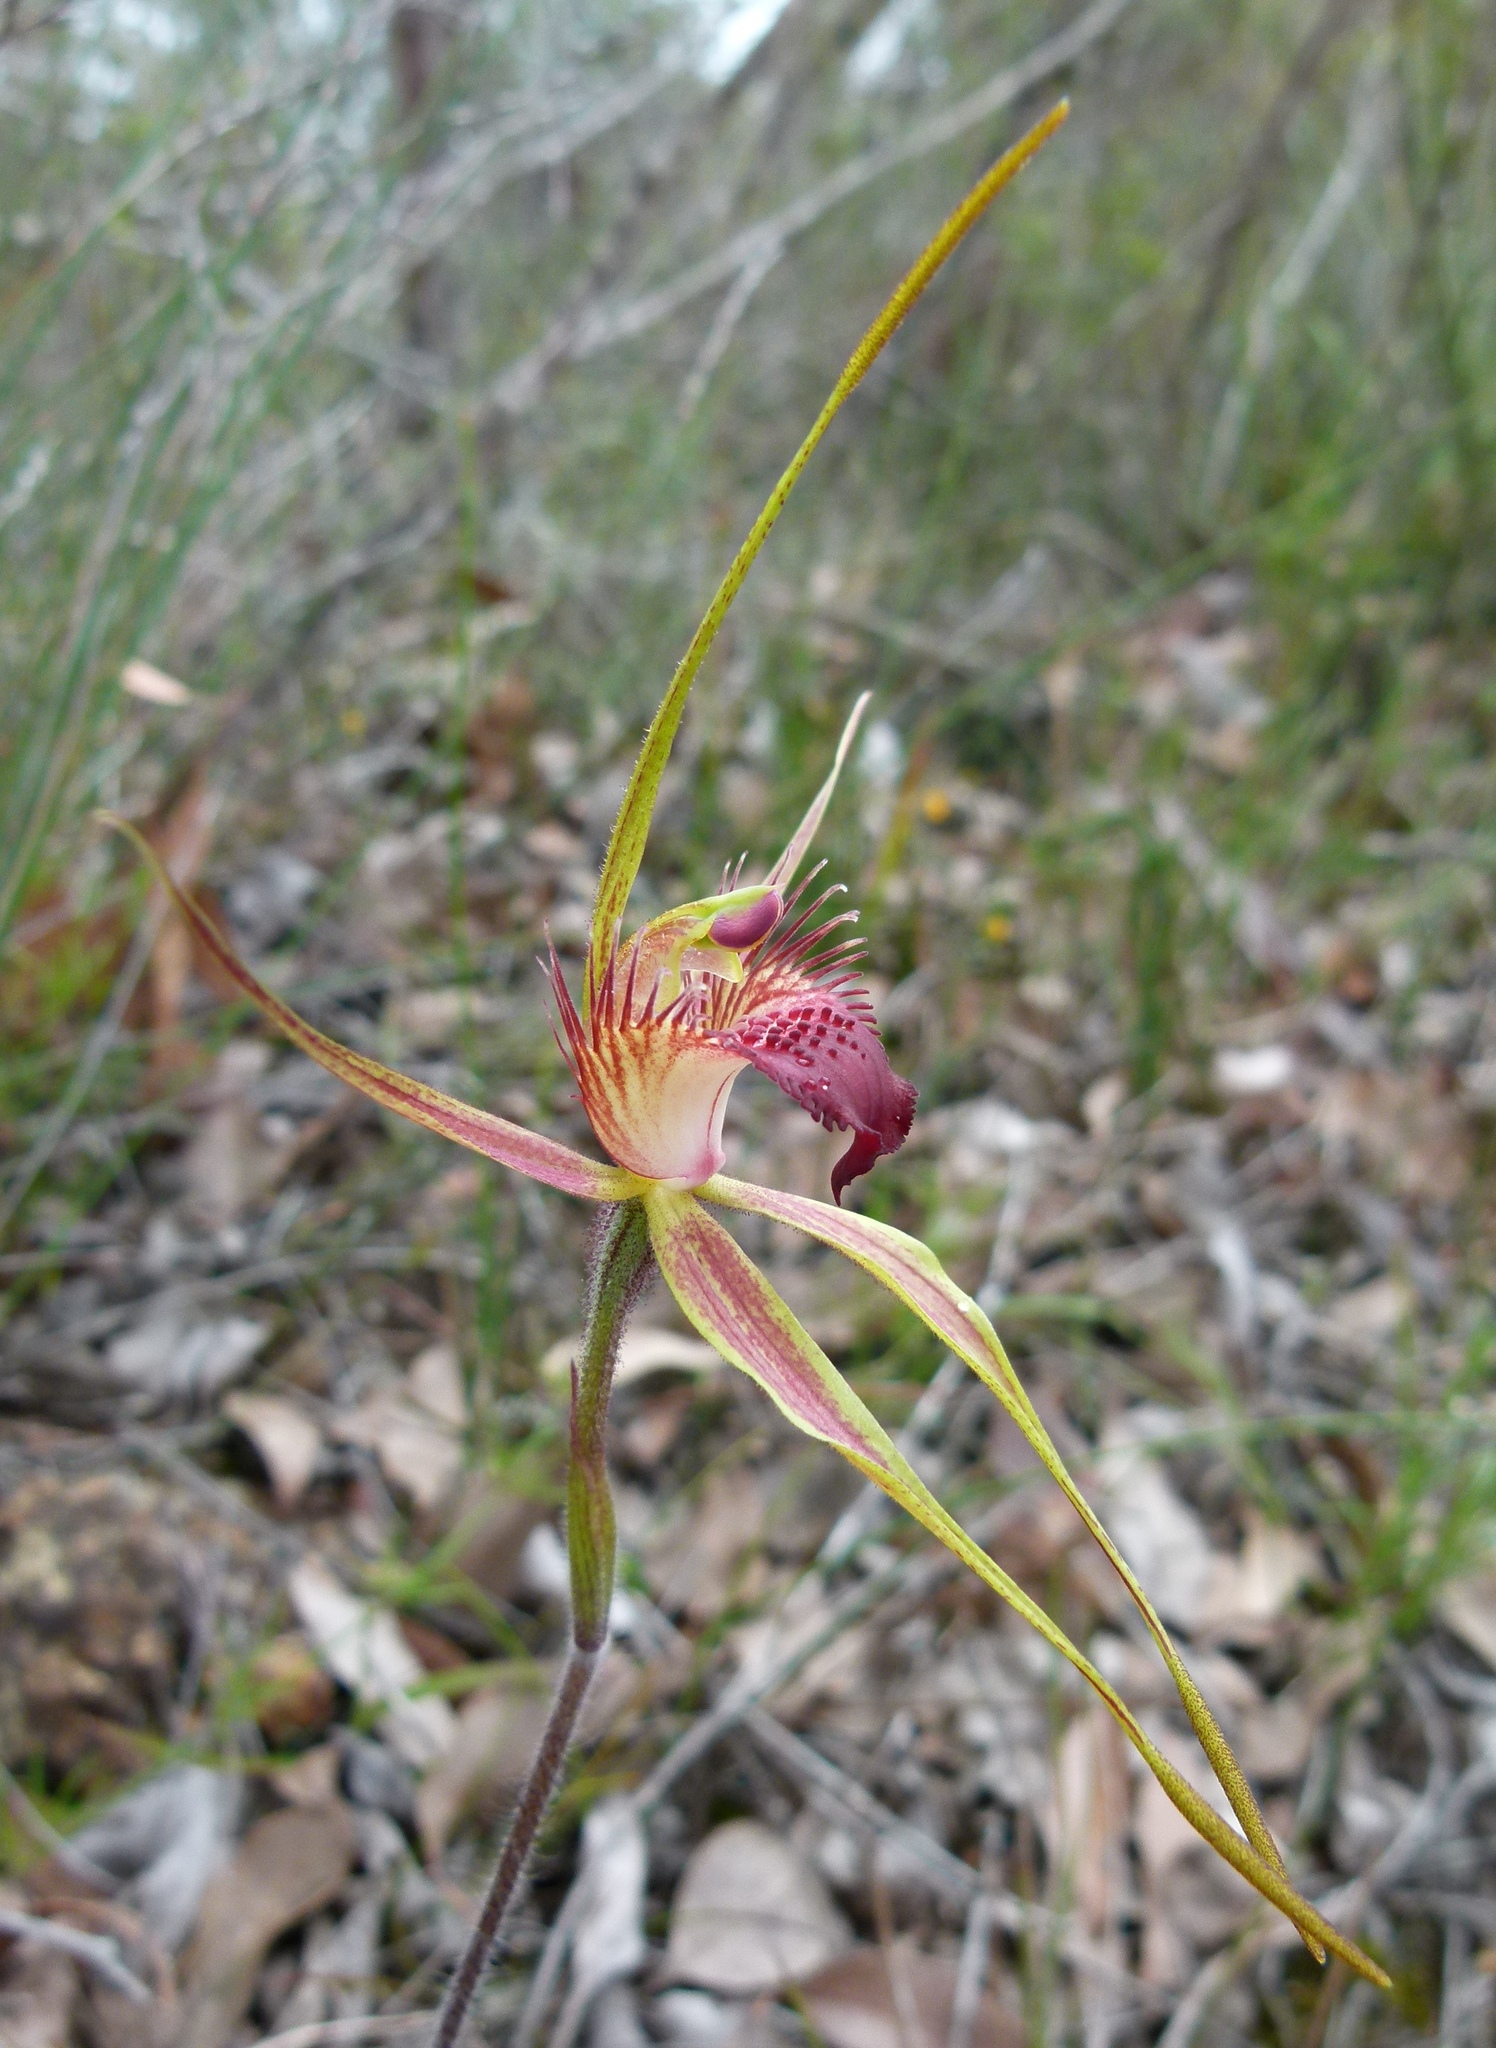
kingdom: Plantae
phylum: Tracheophyta
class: Liliopsida
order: Asparagales
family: Orchidaceae
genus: Caladenia
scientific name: Caladenia brownii
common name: Kari spider orchid
